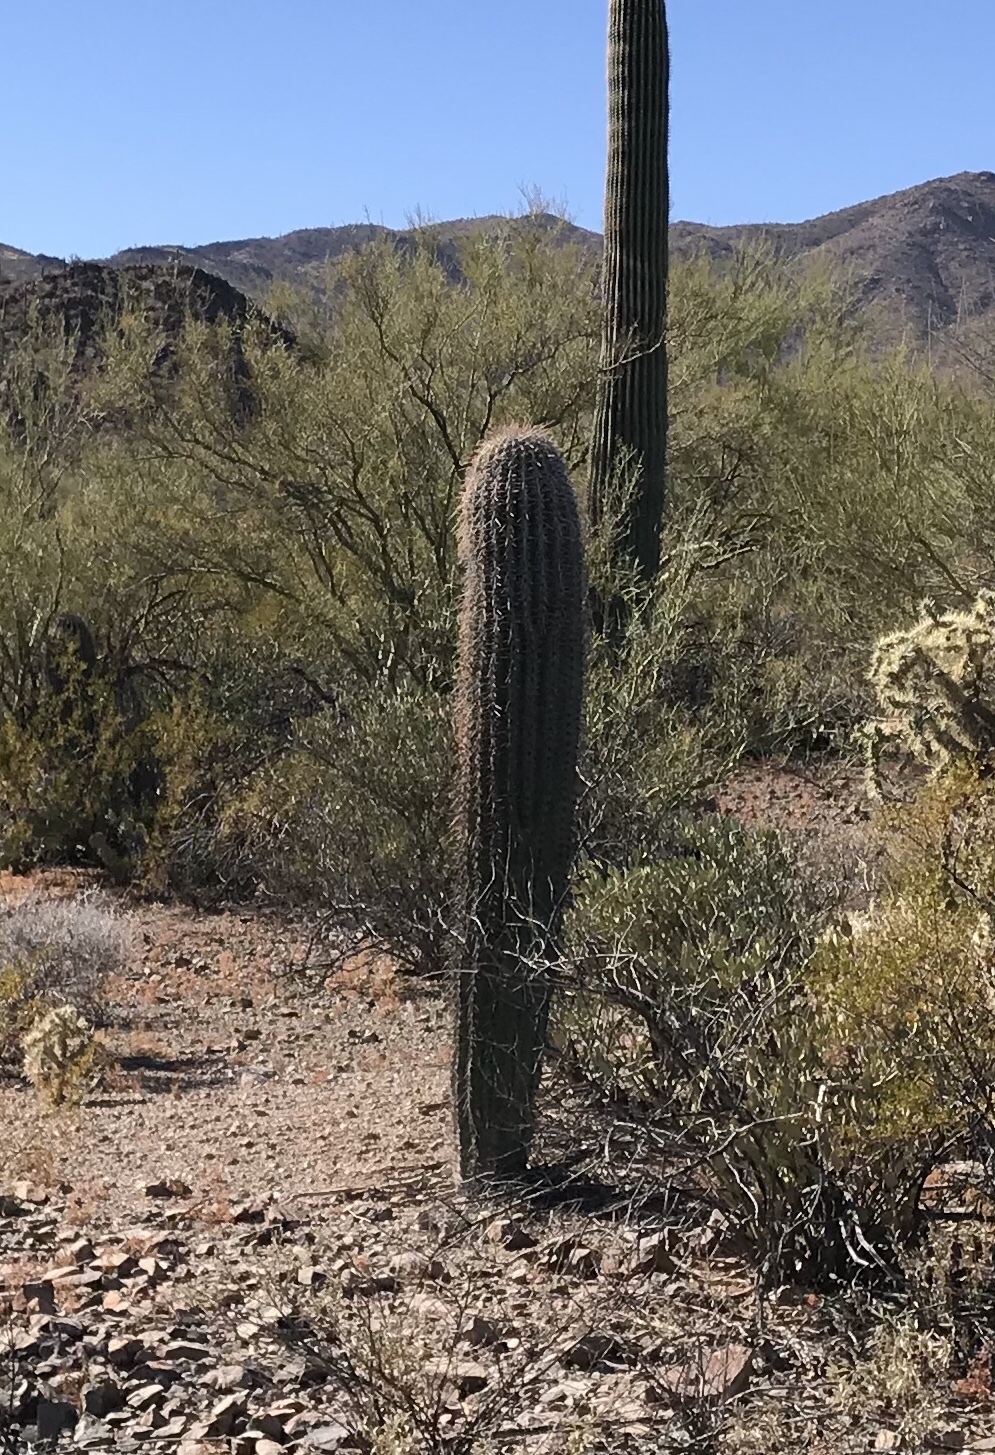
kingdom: Plantae
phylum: Tracheophyta
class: Magnoliopsida
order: Caryophyllales
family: Cactaceae
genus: Carnegiea
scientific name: Carnegiea gigantea
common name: Saguaro
